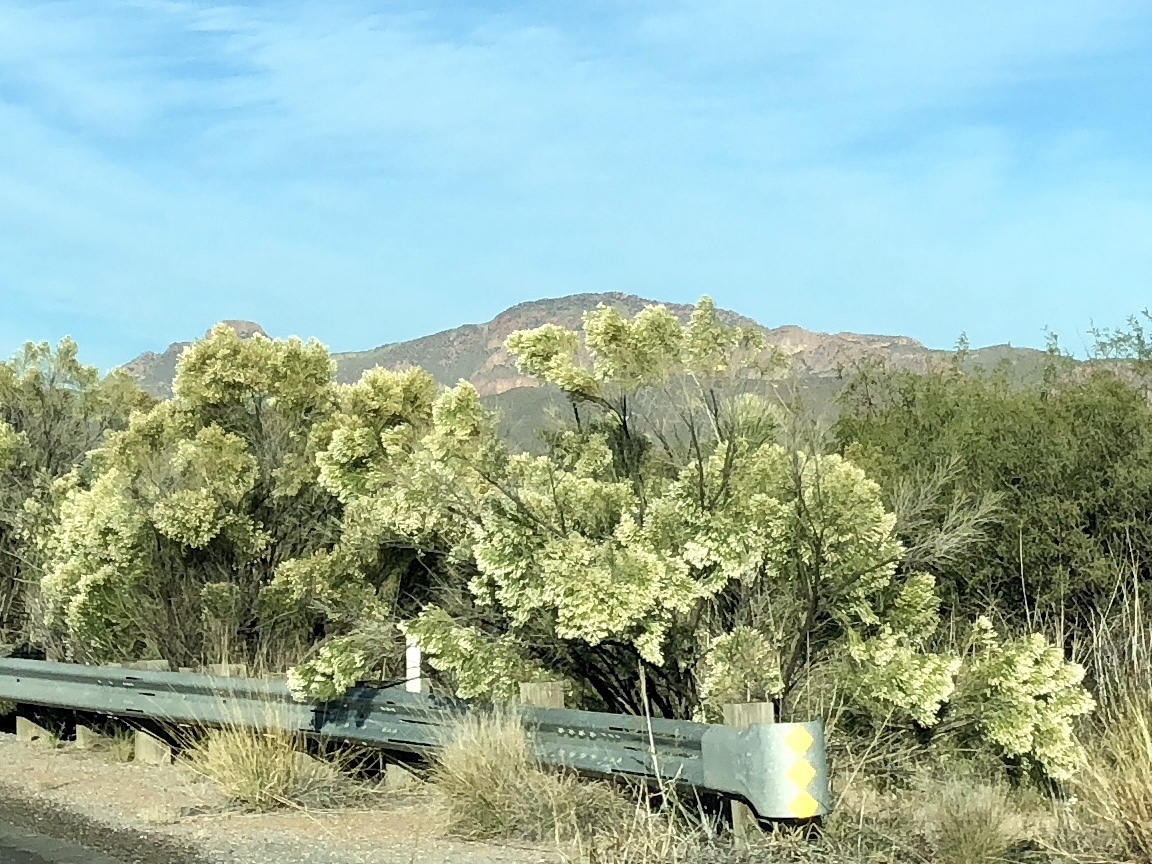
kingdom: Plantae
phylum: Tracheophyta
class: Magnoliopsida
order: Asterales
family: Asteraceae
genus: Baccharis
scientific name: Baccharis sarothroides
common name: Desert-broom
